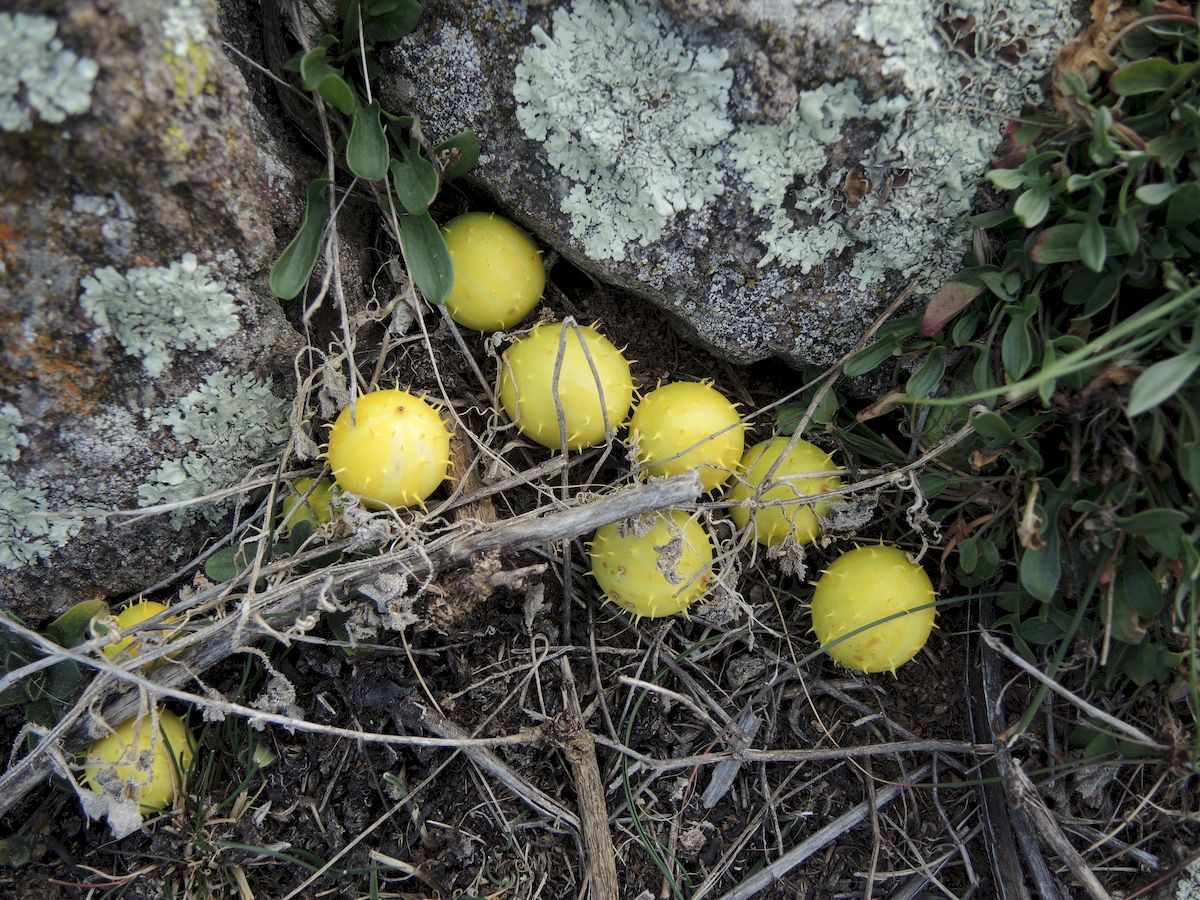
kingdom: Plantae
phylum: Tracheophyta
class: Magnoliopsida
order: Cucurbitales
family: Cucurbitaceae
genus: Cucumis
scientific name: Cucumis myriocarpus
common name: Gooseberry cucumber
